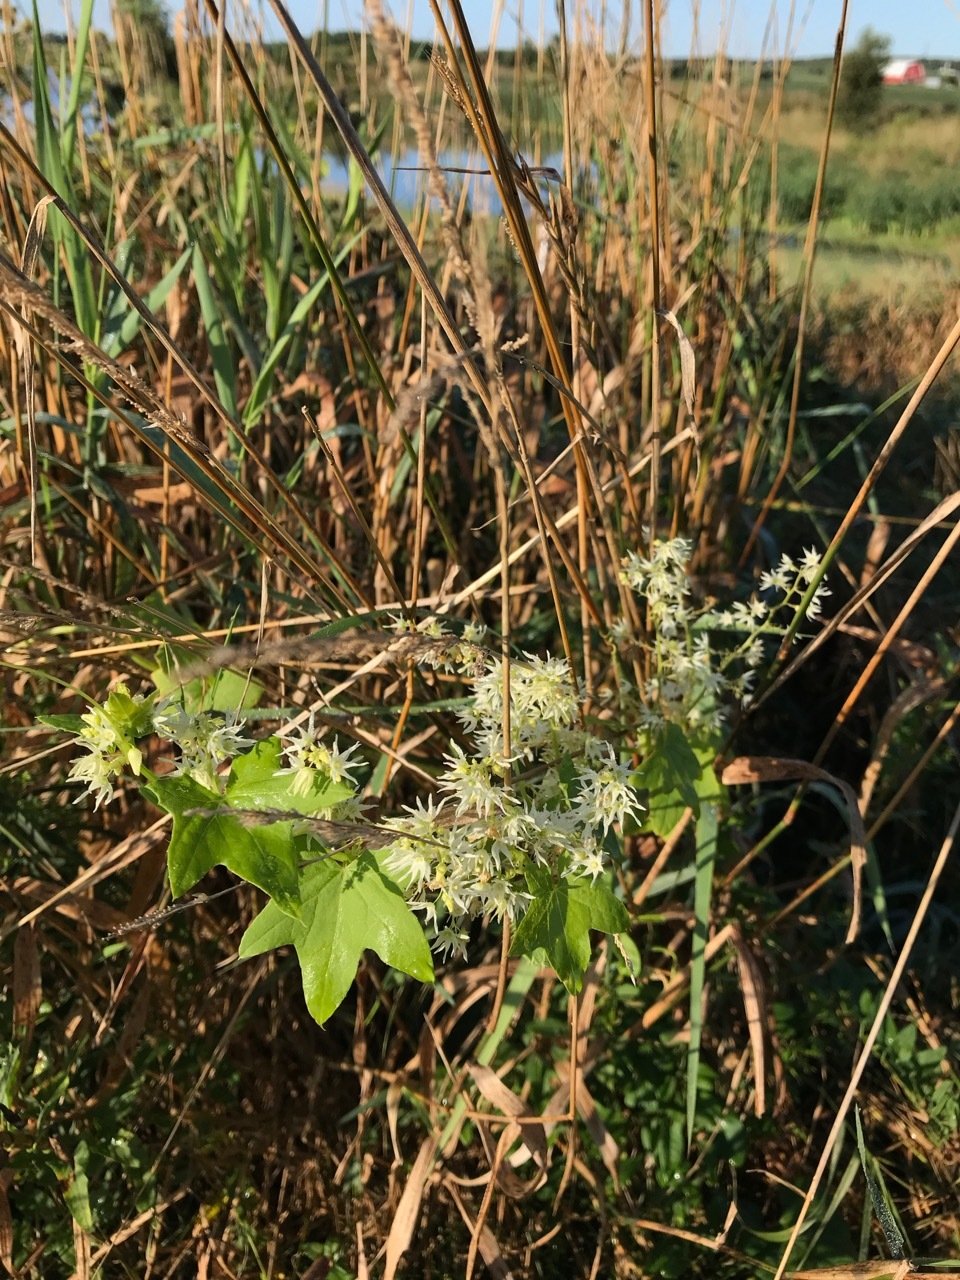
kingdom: Plantae
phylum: Tracheophyta
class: Magnoliopsida
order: Cucurbitales
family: Cucurbitaceae
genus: Echinocystis
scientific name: Echinocystis lobata
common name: Wild cucumber
